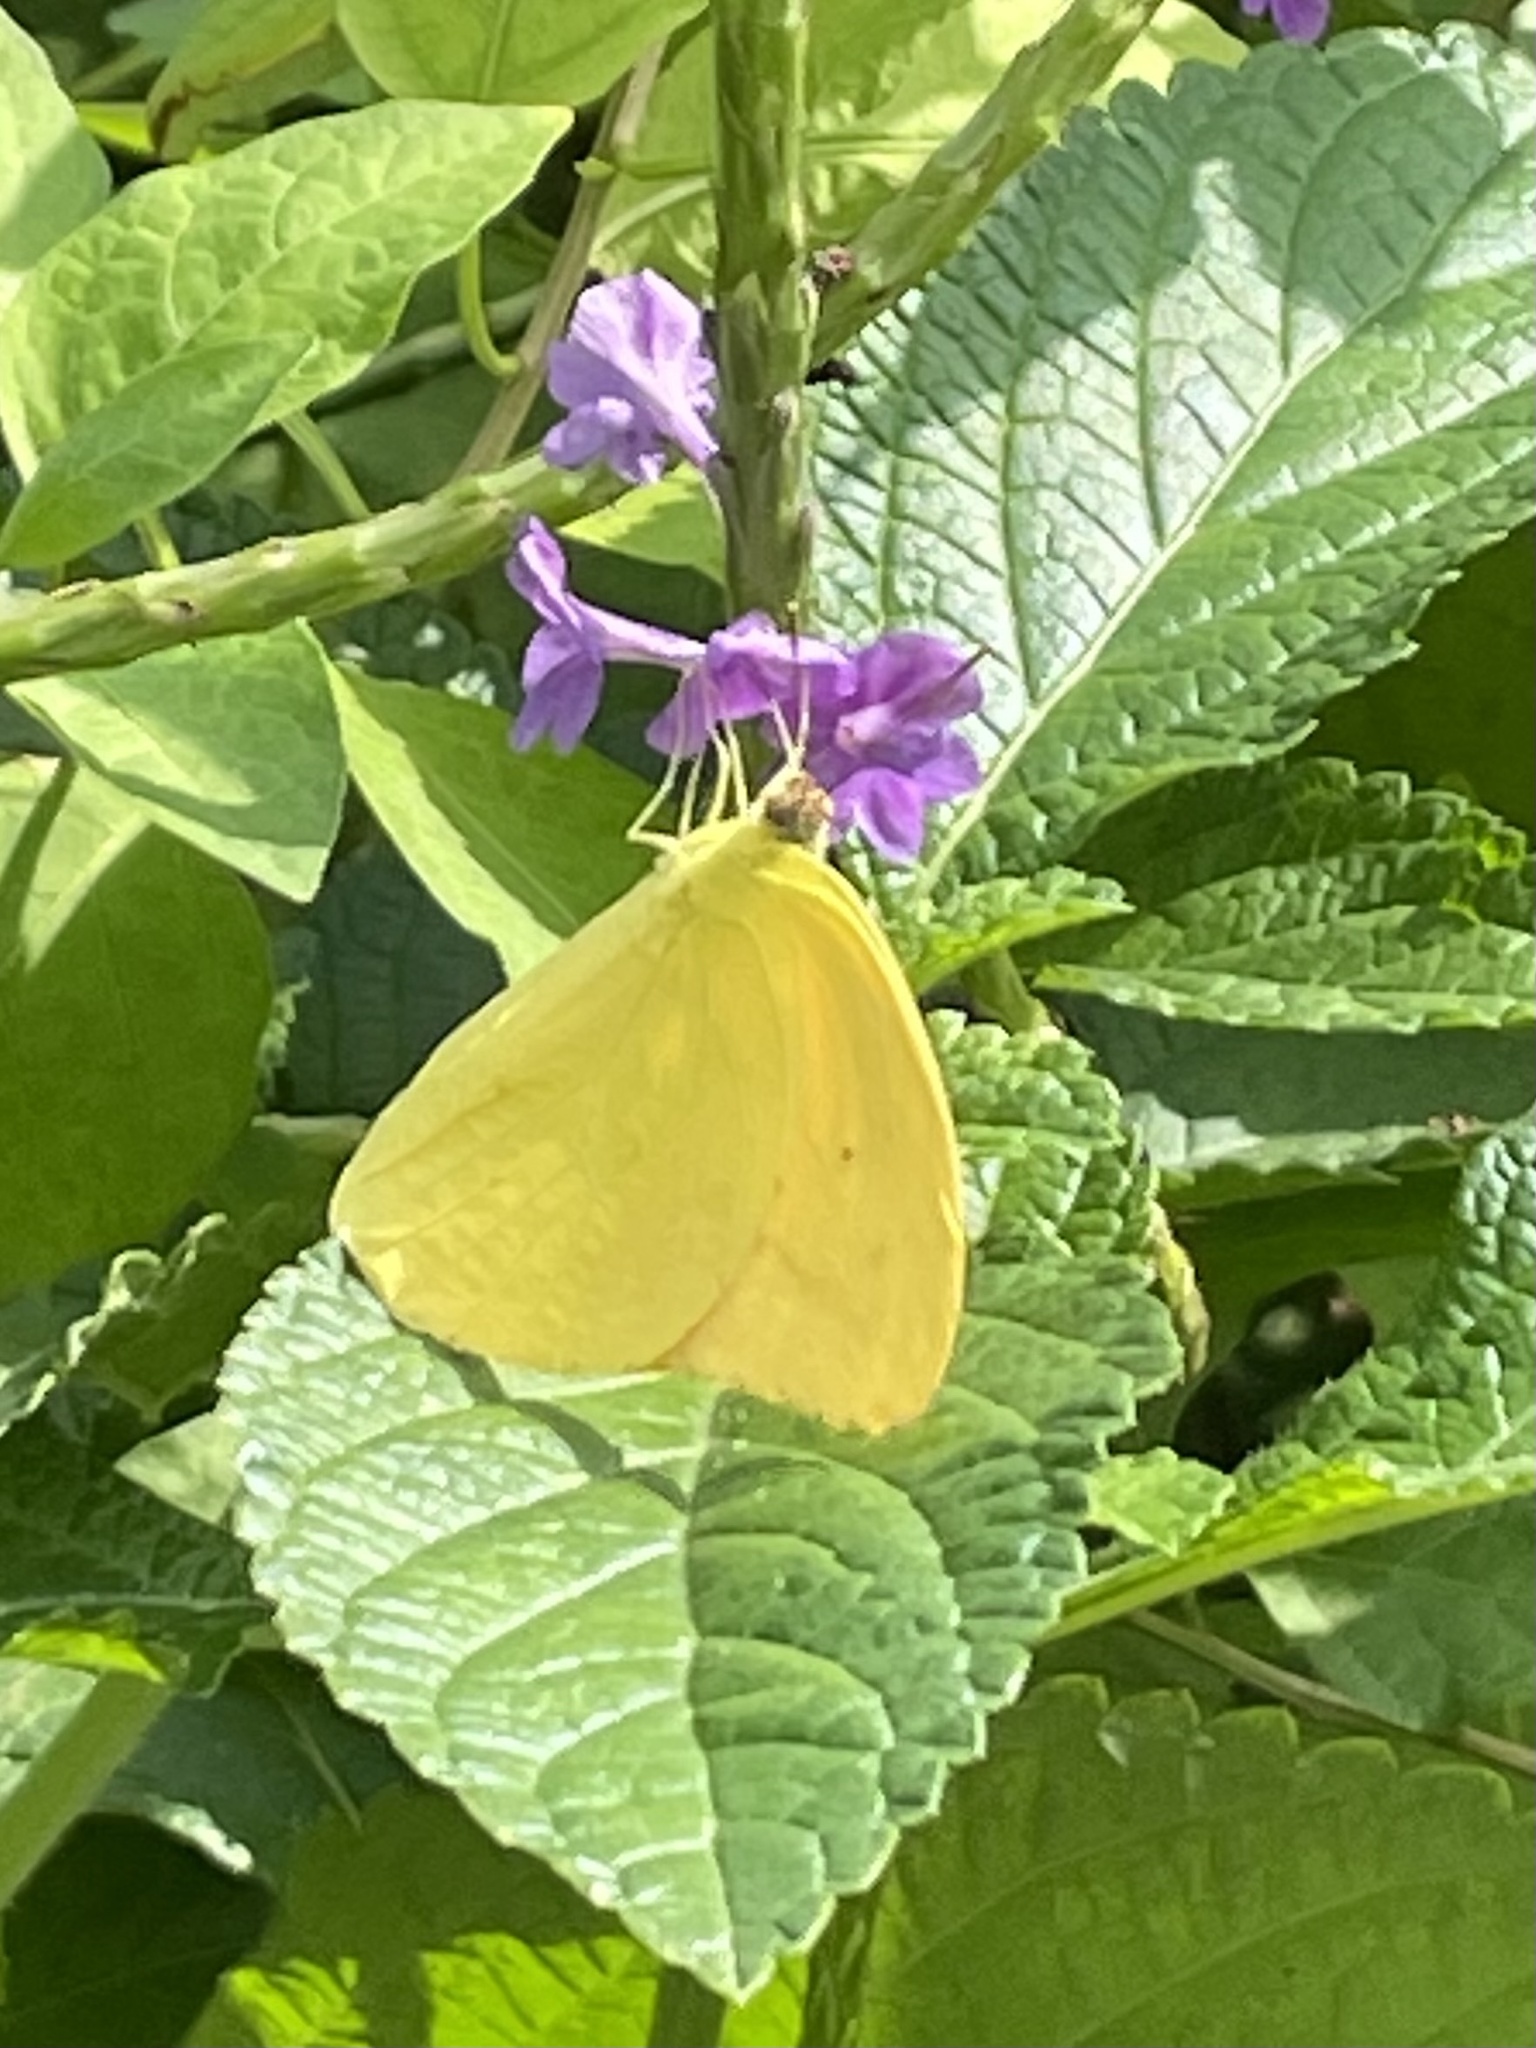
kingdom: Animalia
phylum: Arthropoda
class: Insecta
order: Lepidoptera
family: Pieridae
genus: Phoebis
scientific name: Phoebis agarithe
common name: Large orange sulphur
